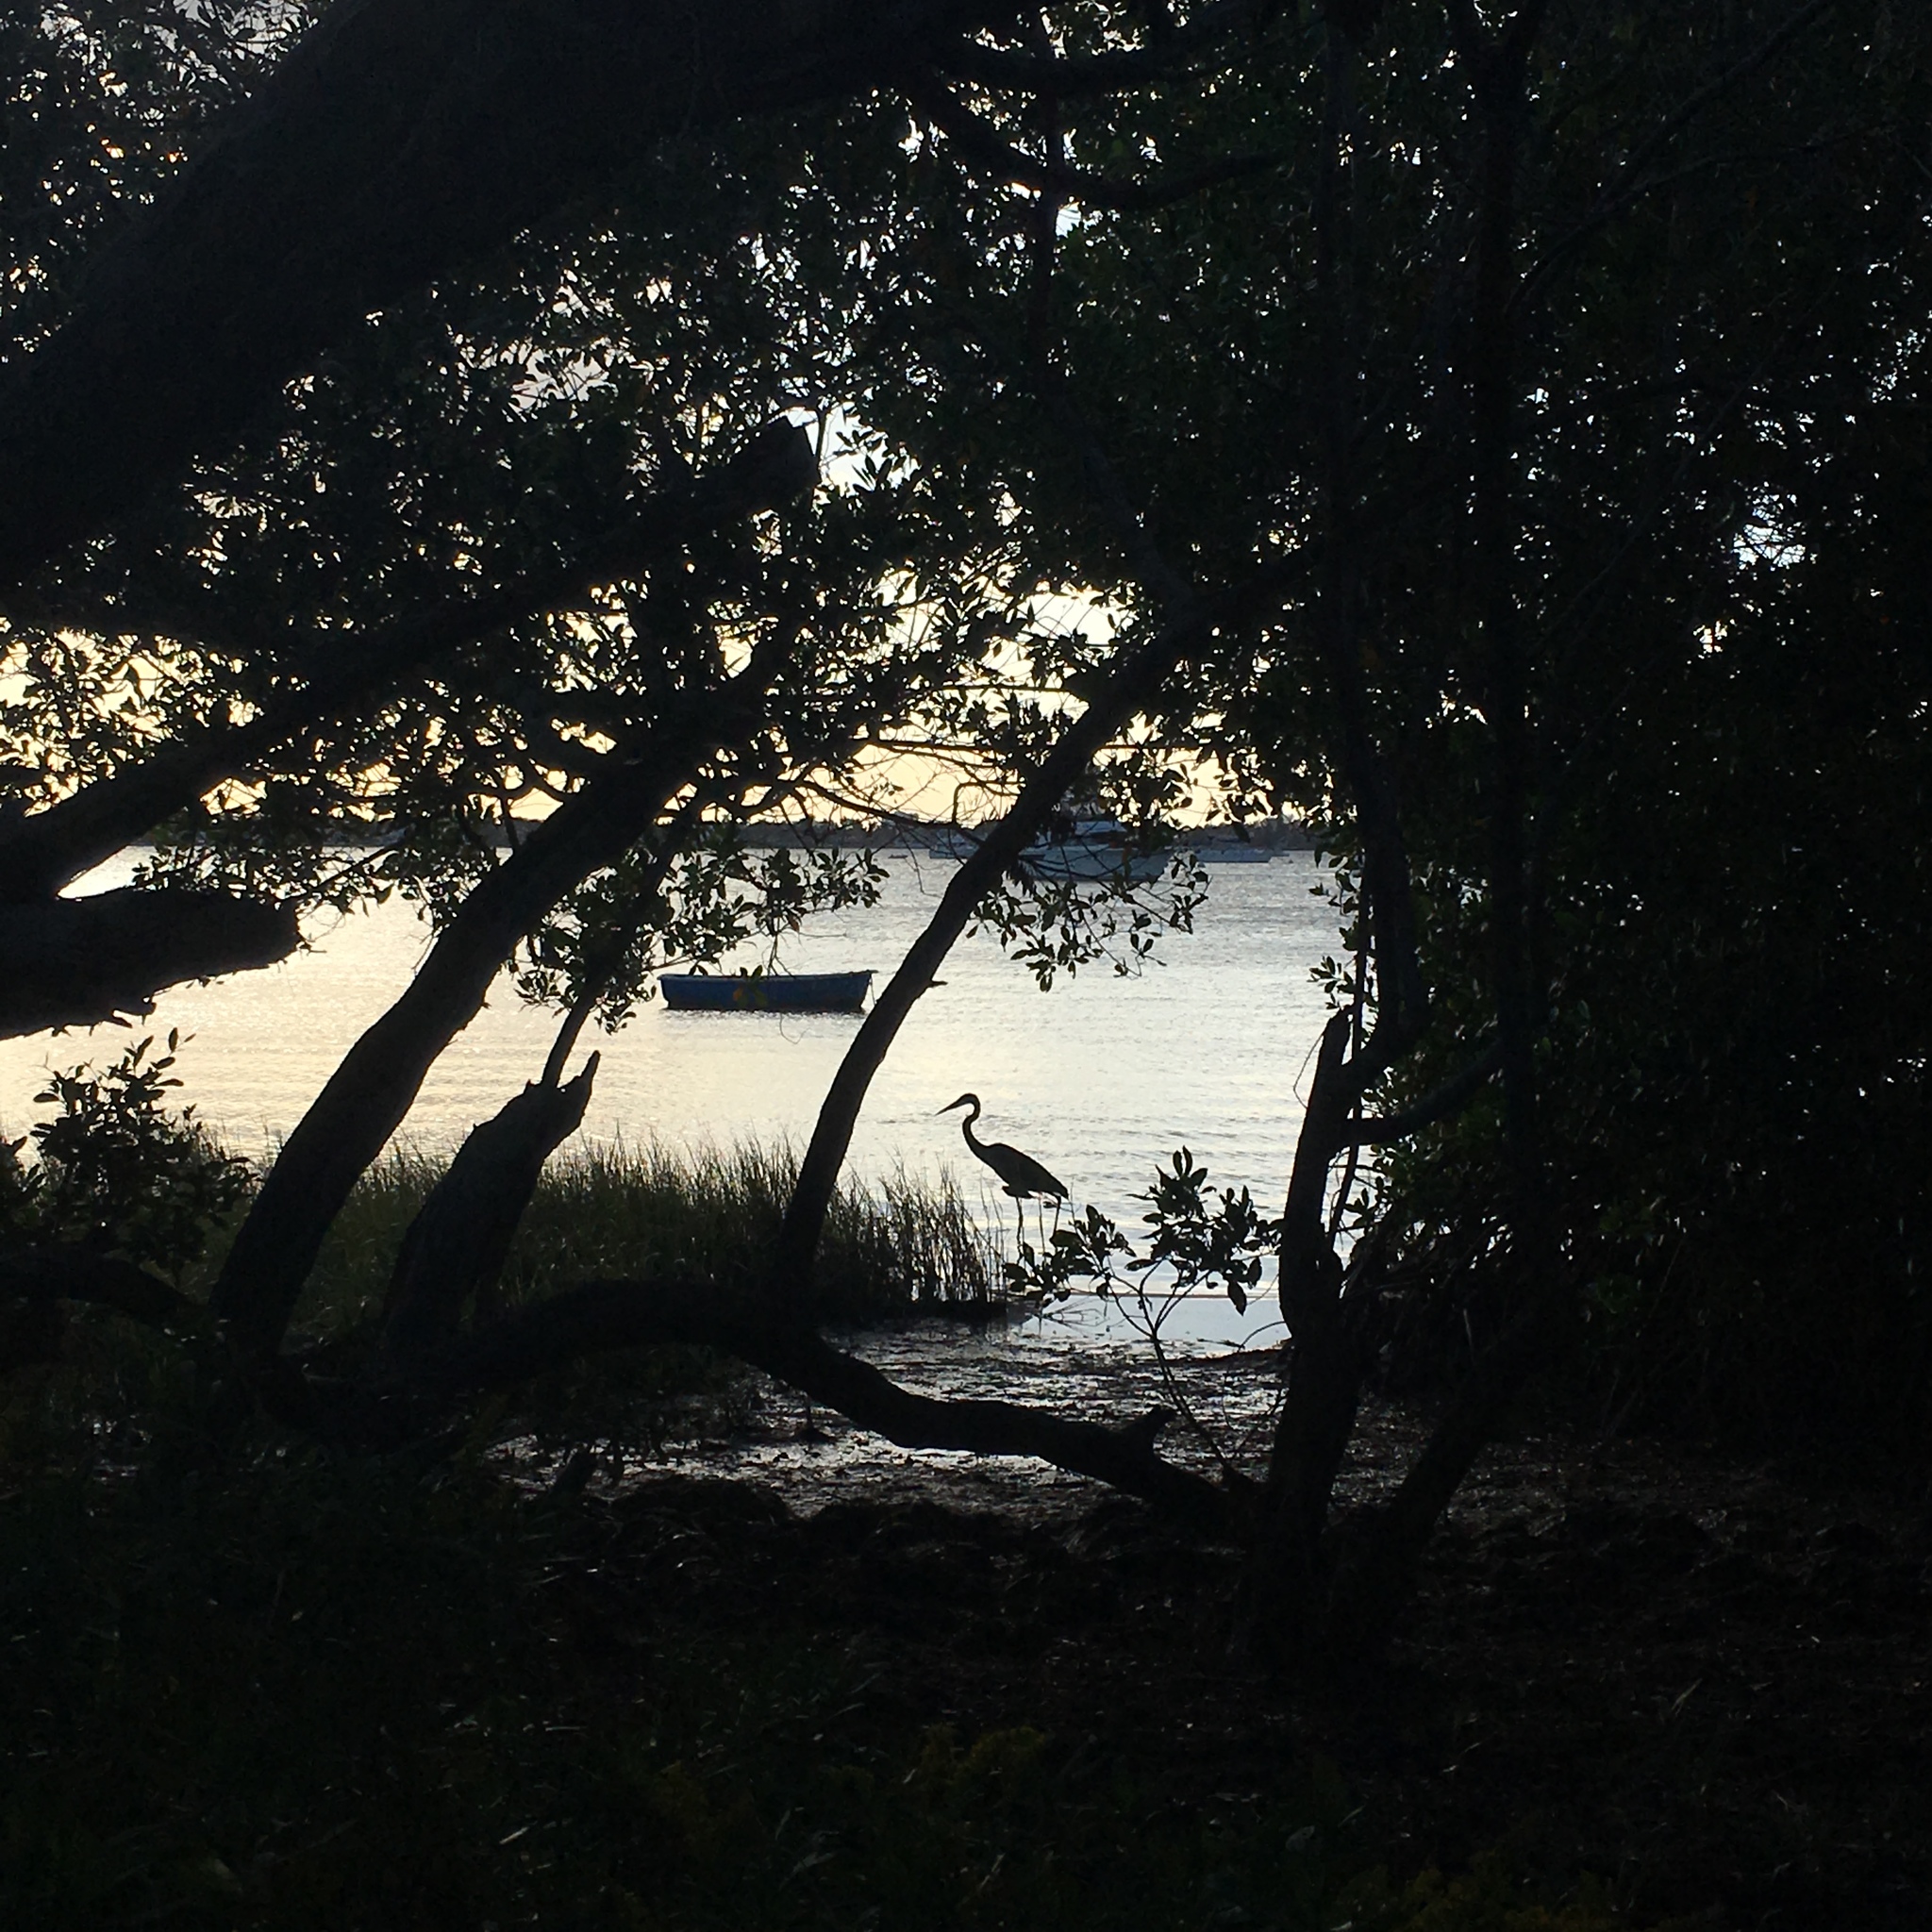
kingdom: Animalia
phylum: Chordata
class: Aves
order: Pelecaniformes
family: Ardeidae
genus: Ardea
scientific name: Ardea herodias
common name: Great blue heron
